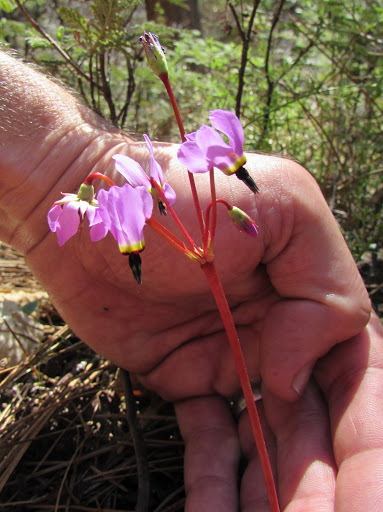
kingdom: Plantae
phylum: Tracheophyta
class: Magnoliopsida
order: Ericales
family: Primulaceae
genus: Dodecatheon
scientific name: Dodecatheon hendersonii
